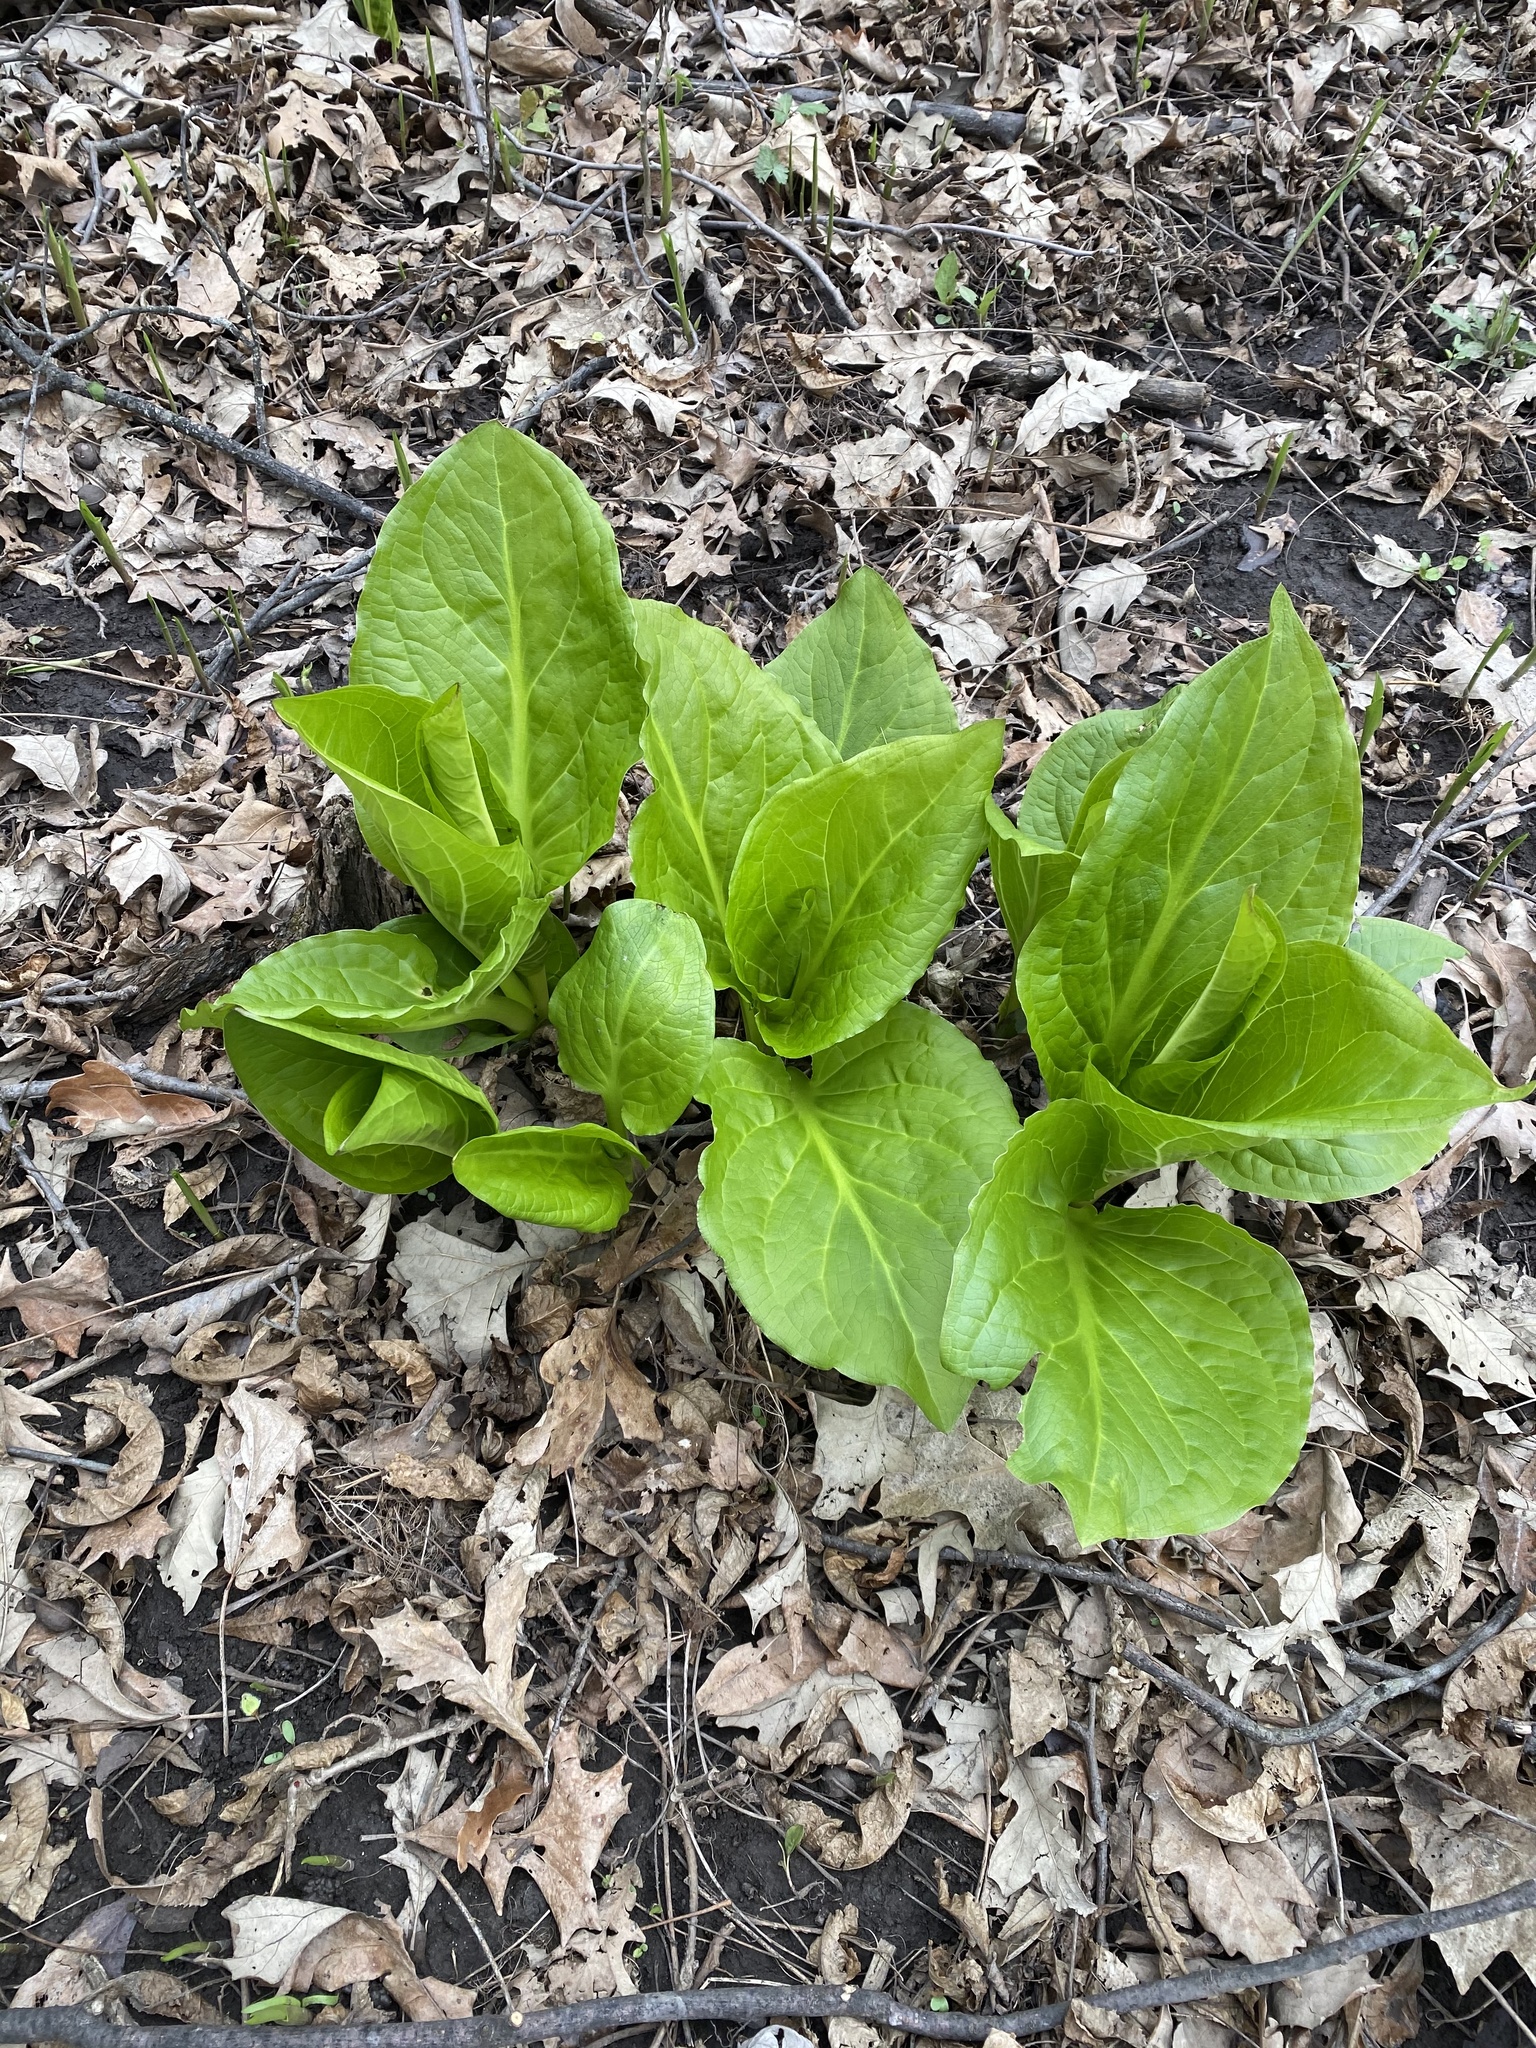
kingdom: Plantae
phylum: Tracheophyta
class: Liliopsida
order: Alismatales
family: Araceae
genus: Symplocarpus
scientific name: Symplocarpus foetidus
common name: Eastern skunk cabbage
